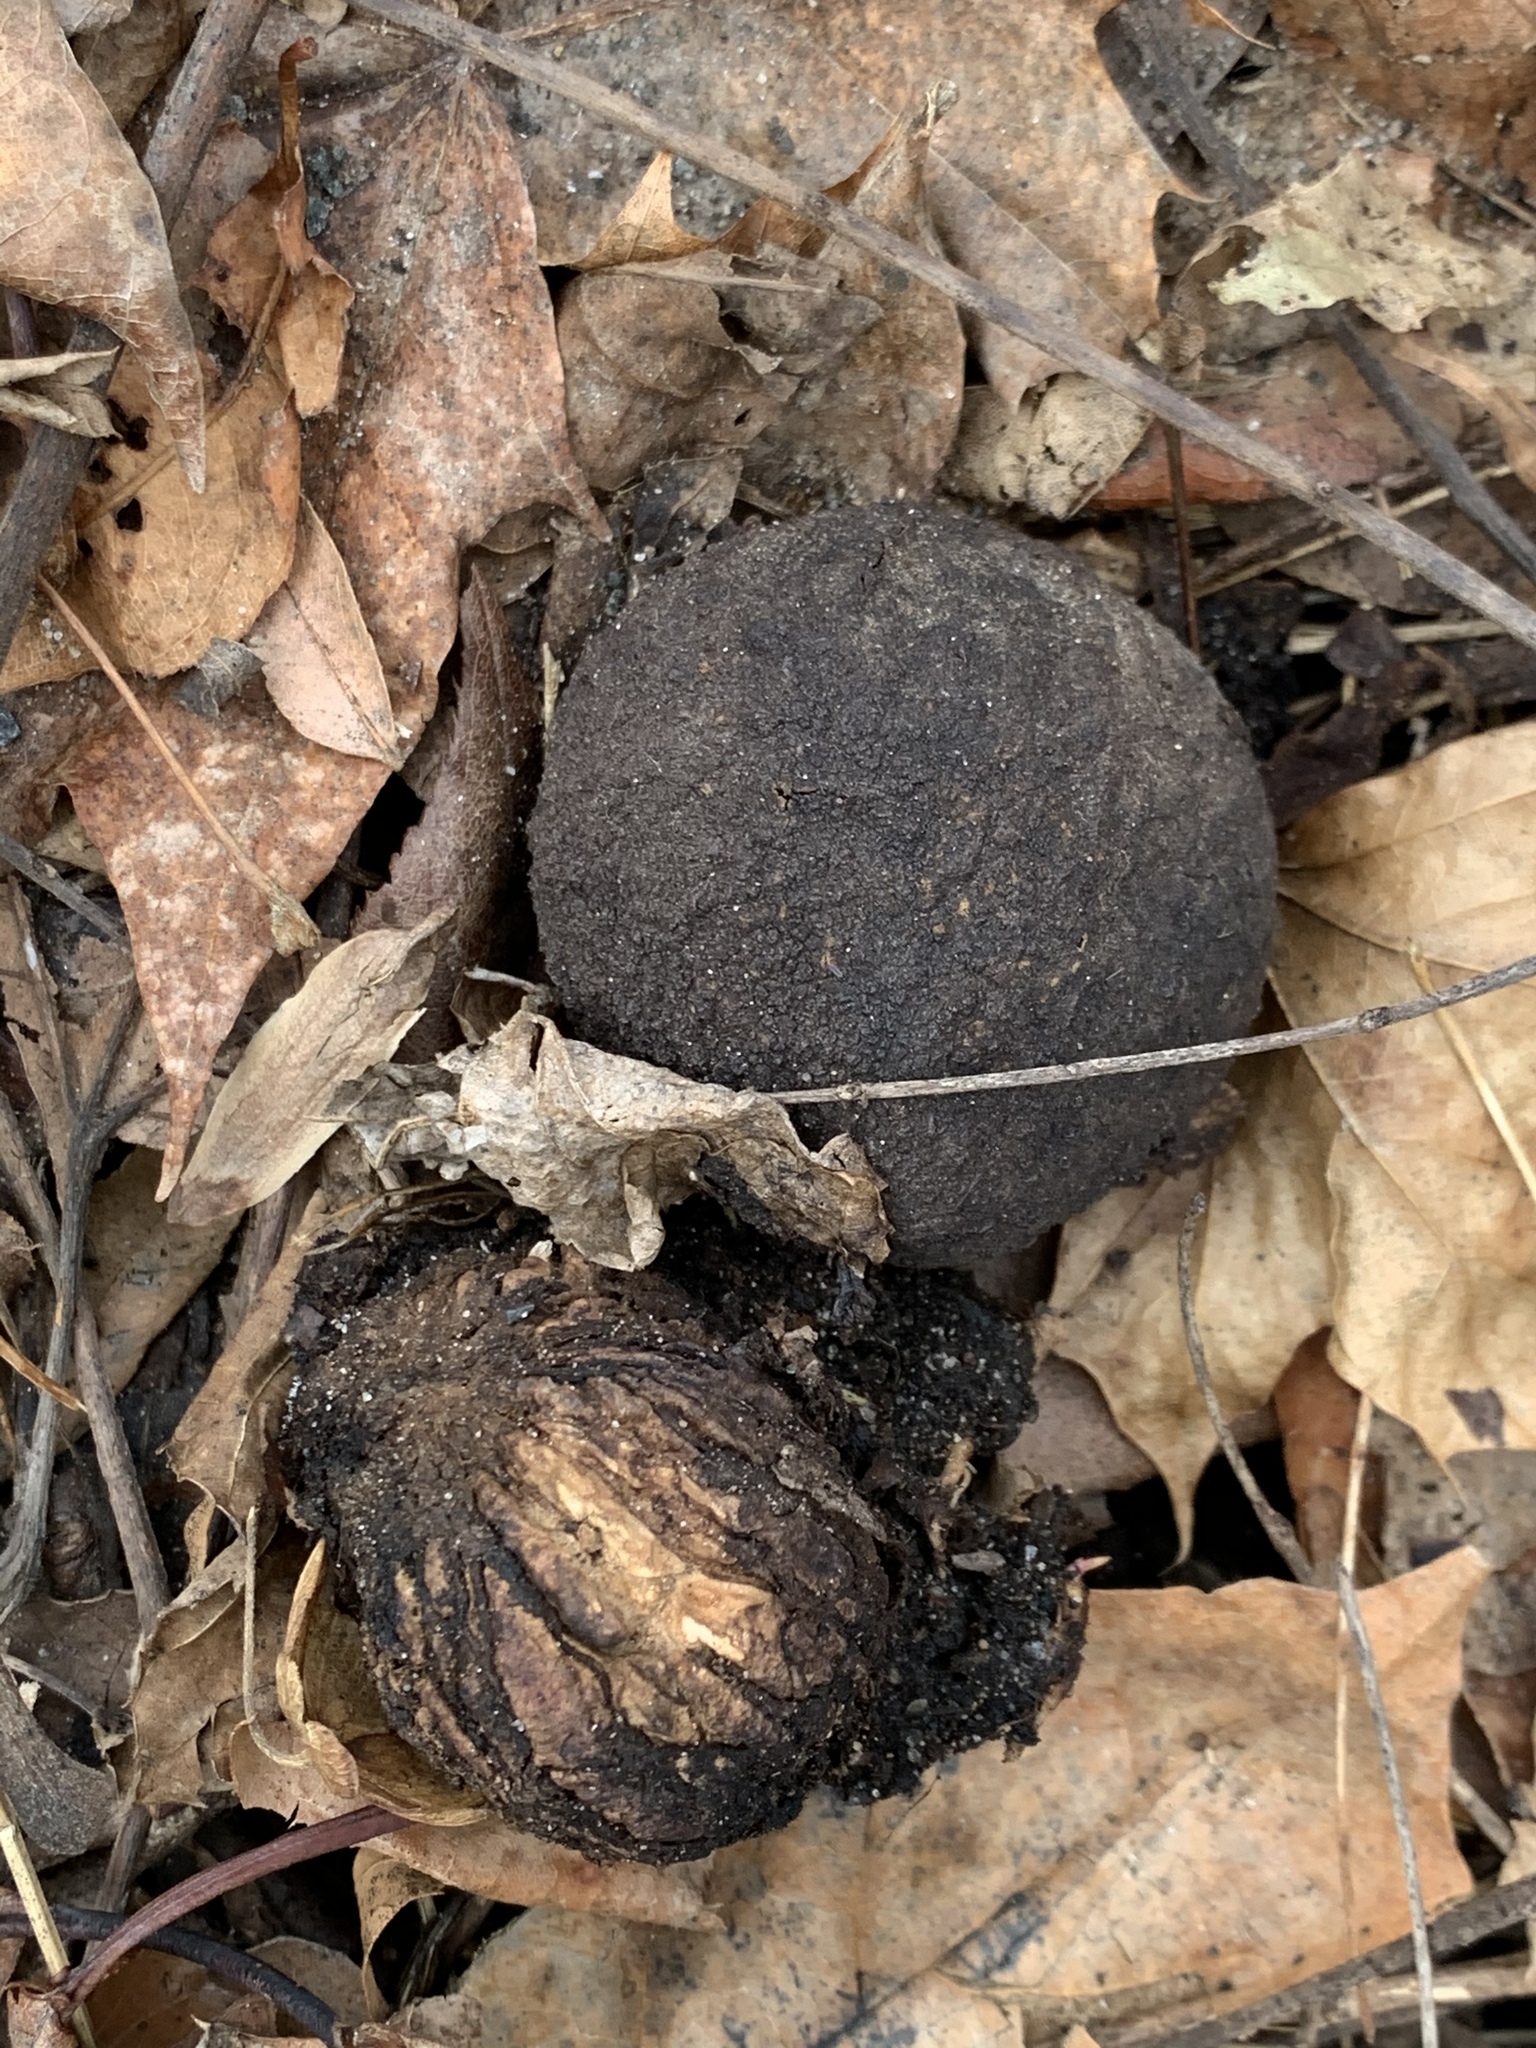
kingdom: Plantae
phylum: Tracheophyta
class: Magnoliopsida
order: Fagales
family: Juglandaceae
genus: Juglans
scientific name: Juglans nigra
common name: Black walnut
